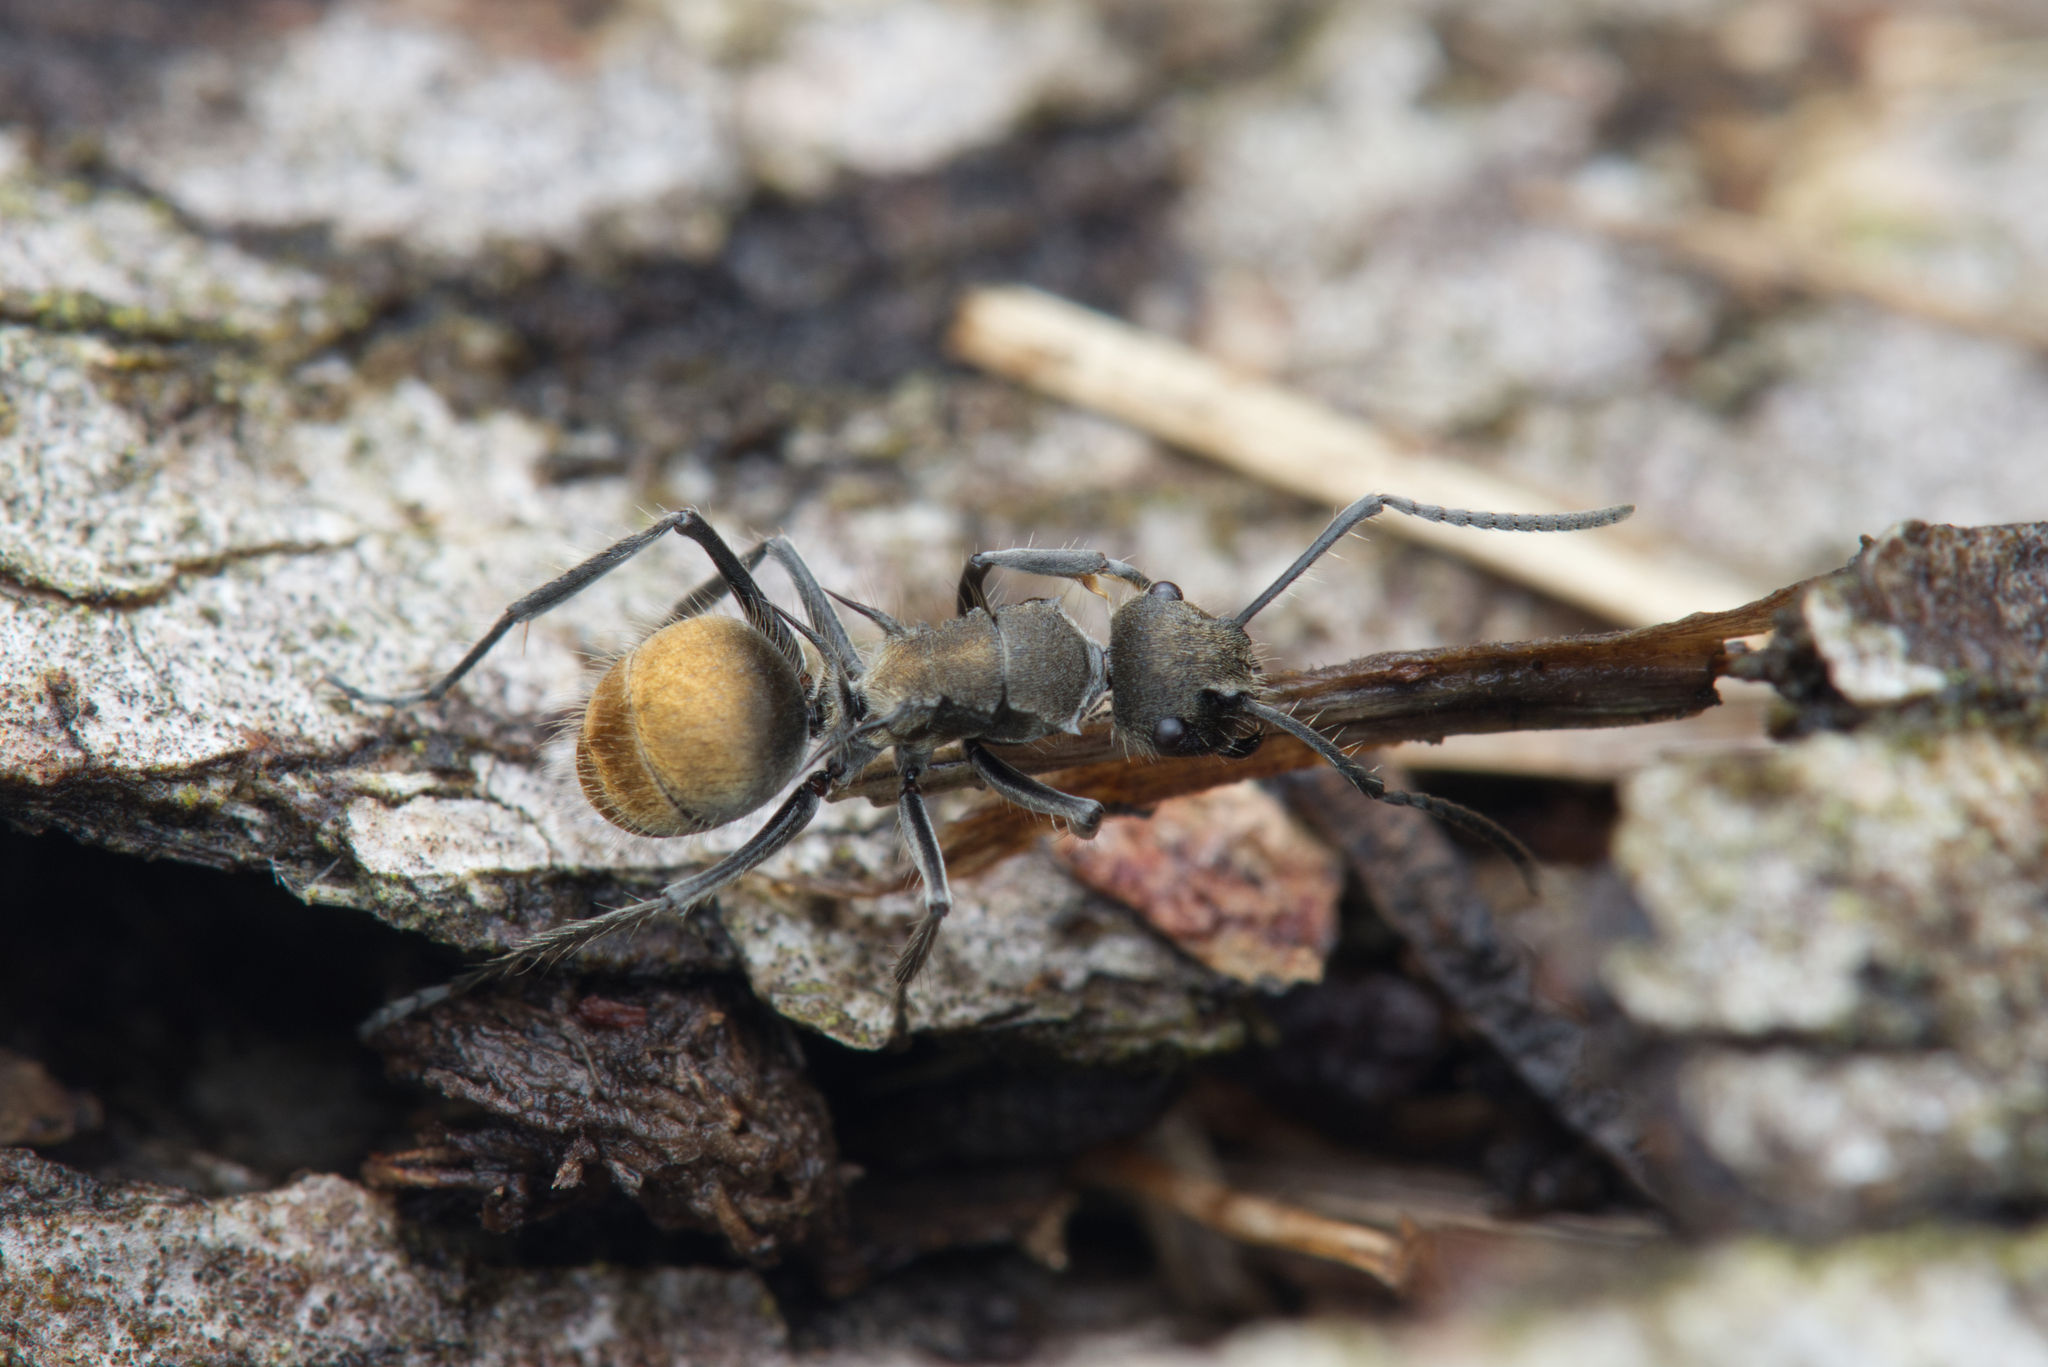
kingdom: Animalia
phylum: Arthropoda
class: Insecta
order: Hymenoptera
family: Formicidae
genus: Polyrhachis
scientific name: Polyrhachis aurea
